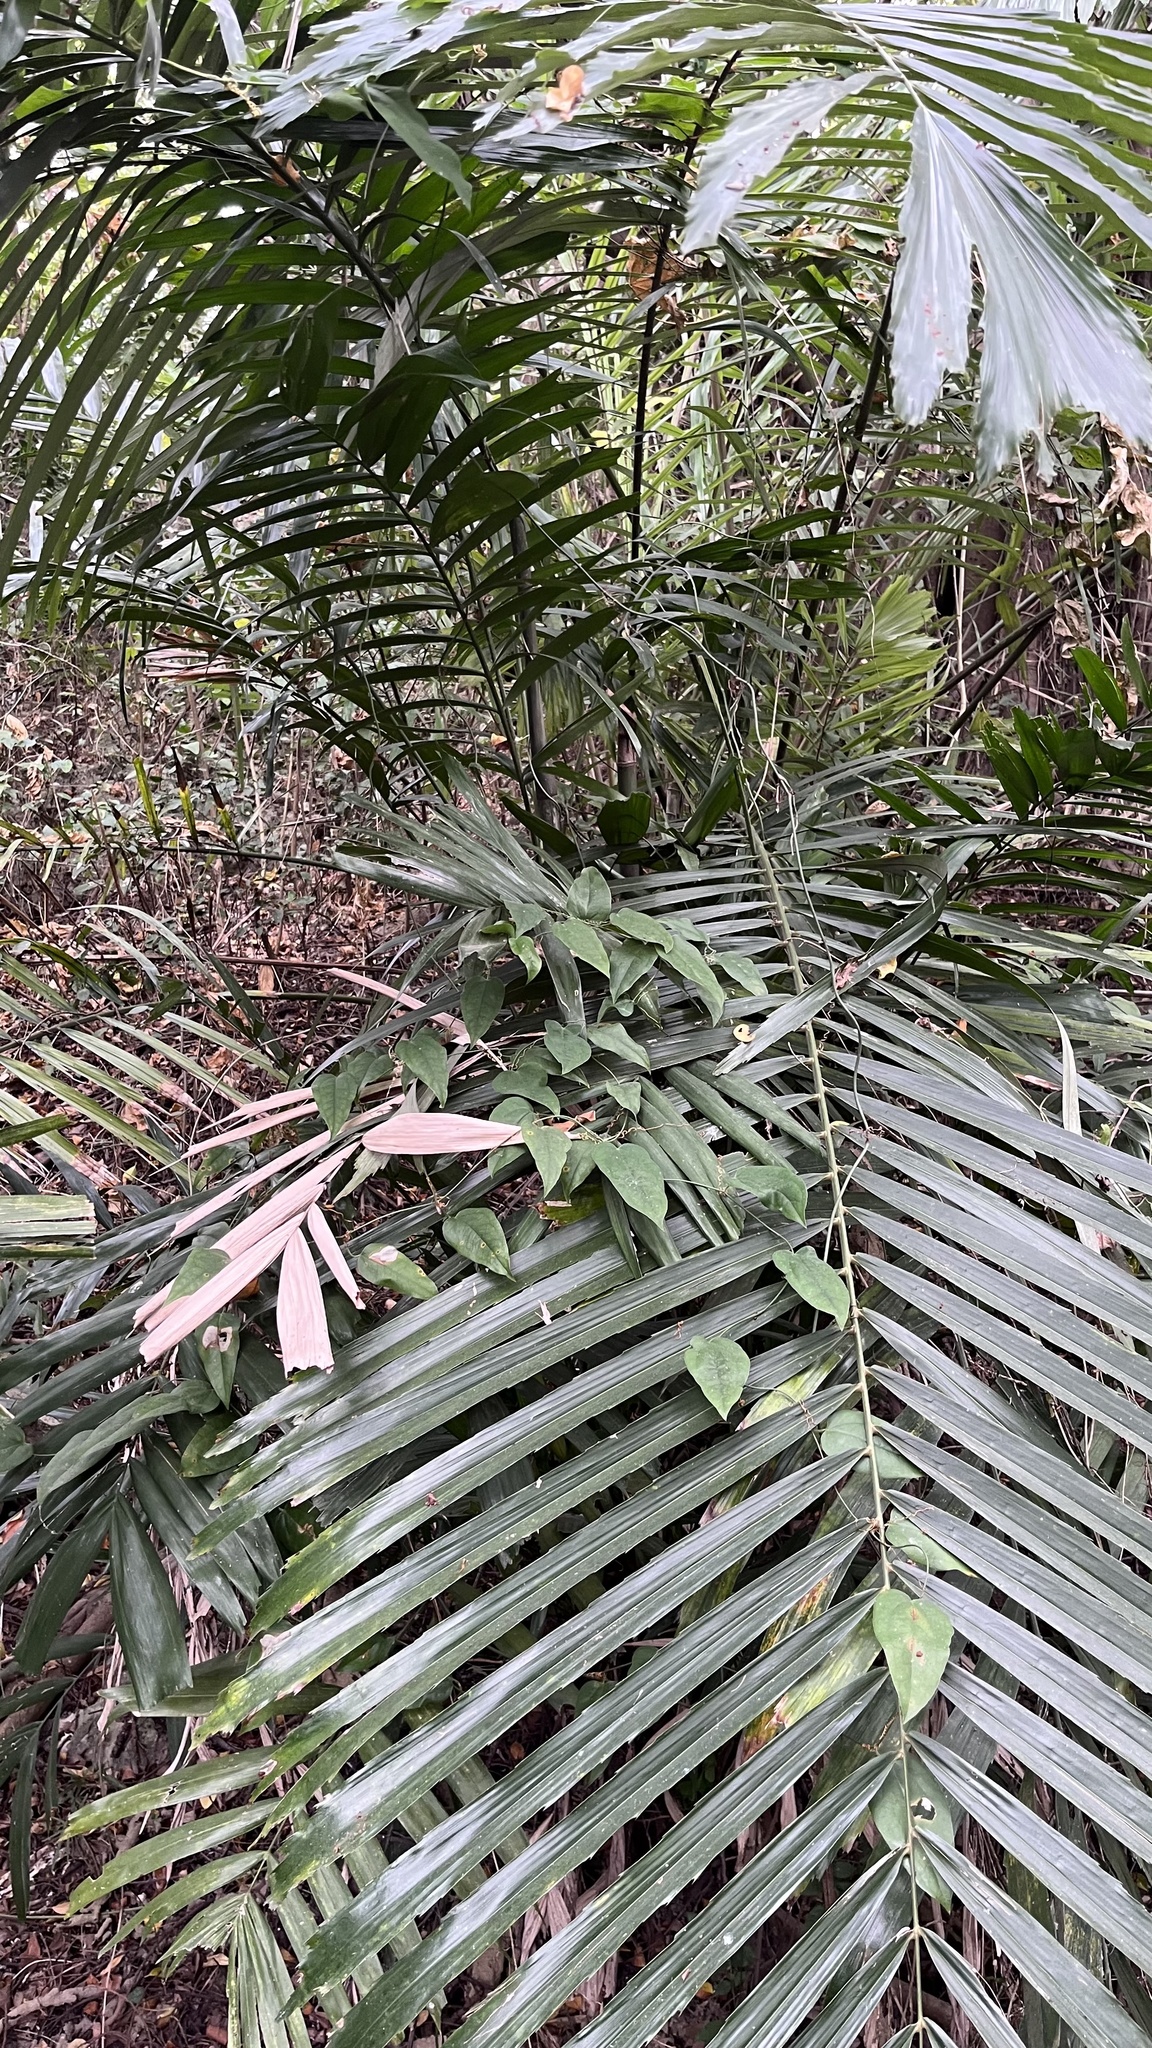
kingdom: Plantae
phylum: Tracheophyta
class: Liliopsida
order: Arecales
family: Arecaceae
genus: Arenga
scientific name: Arenga engleri
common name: Formosan sugar palm
